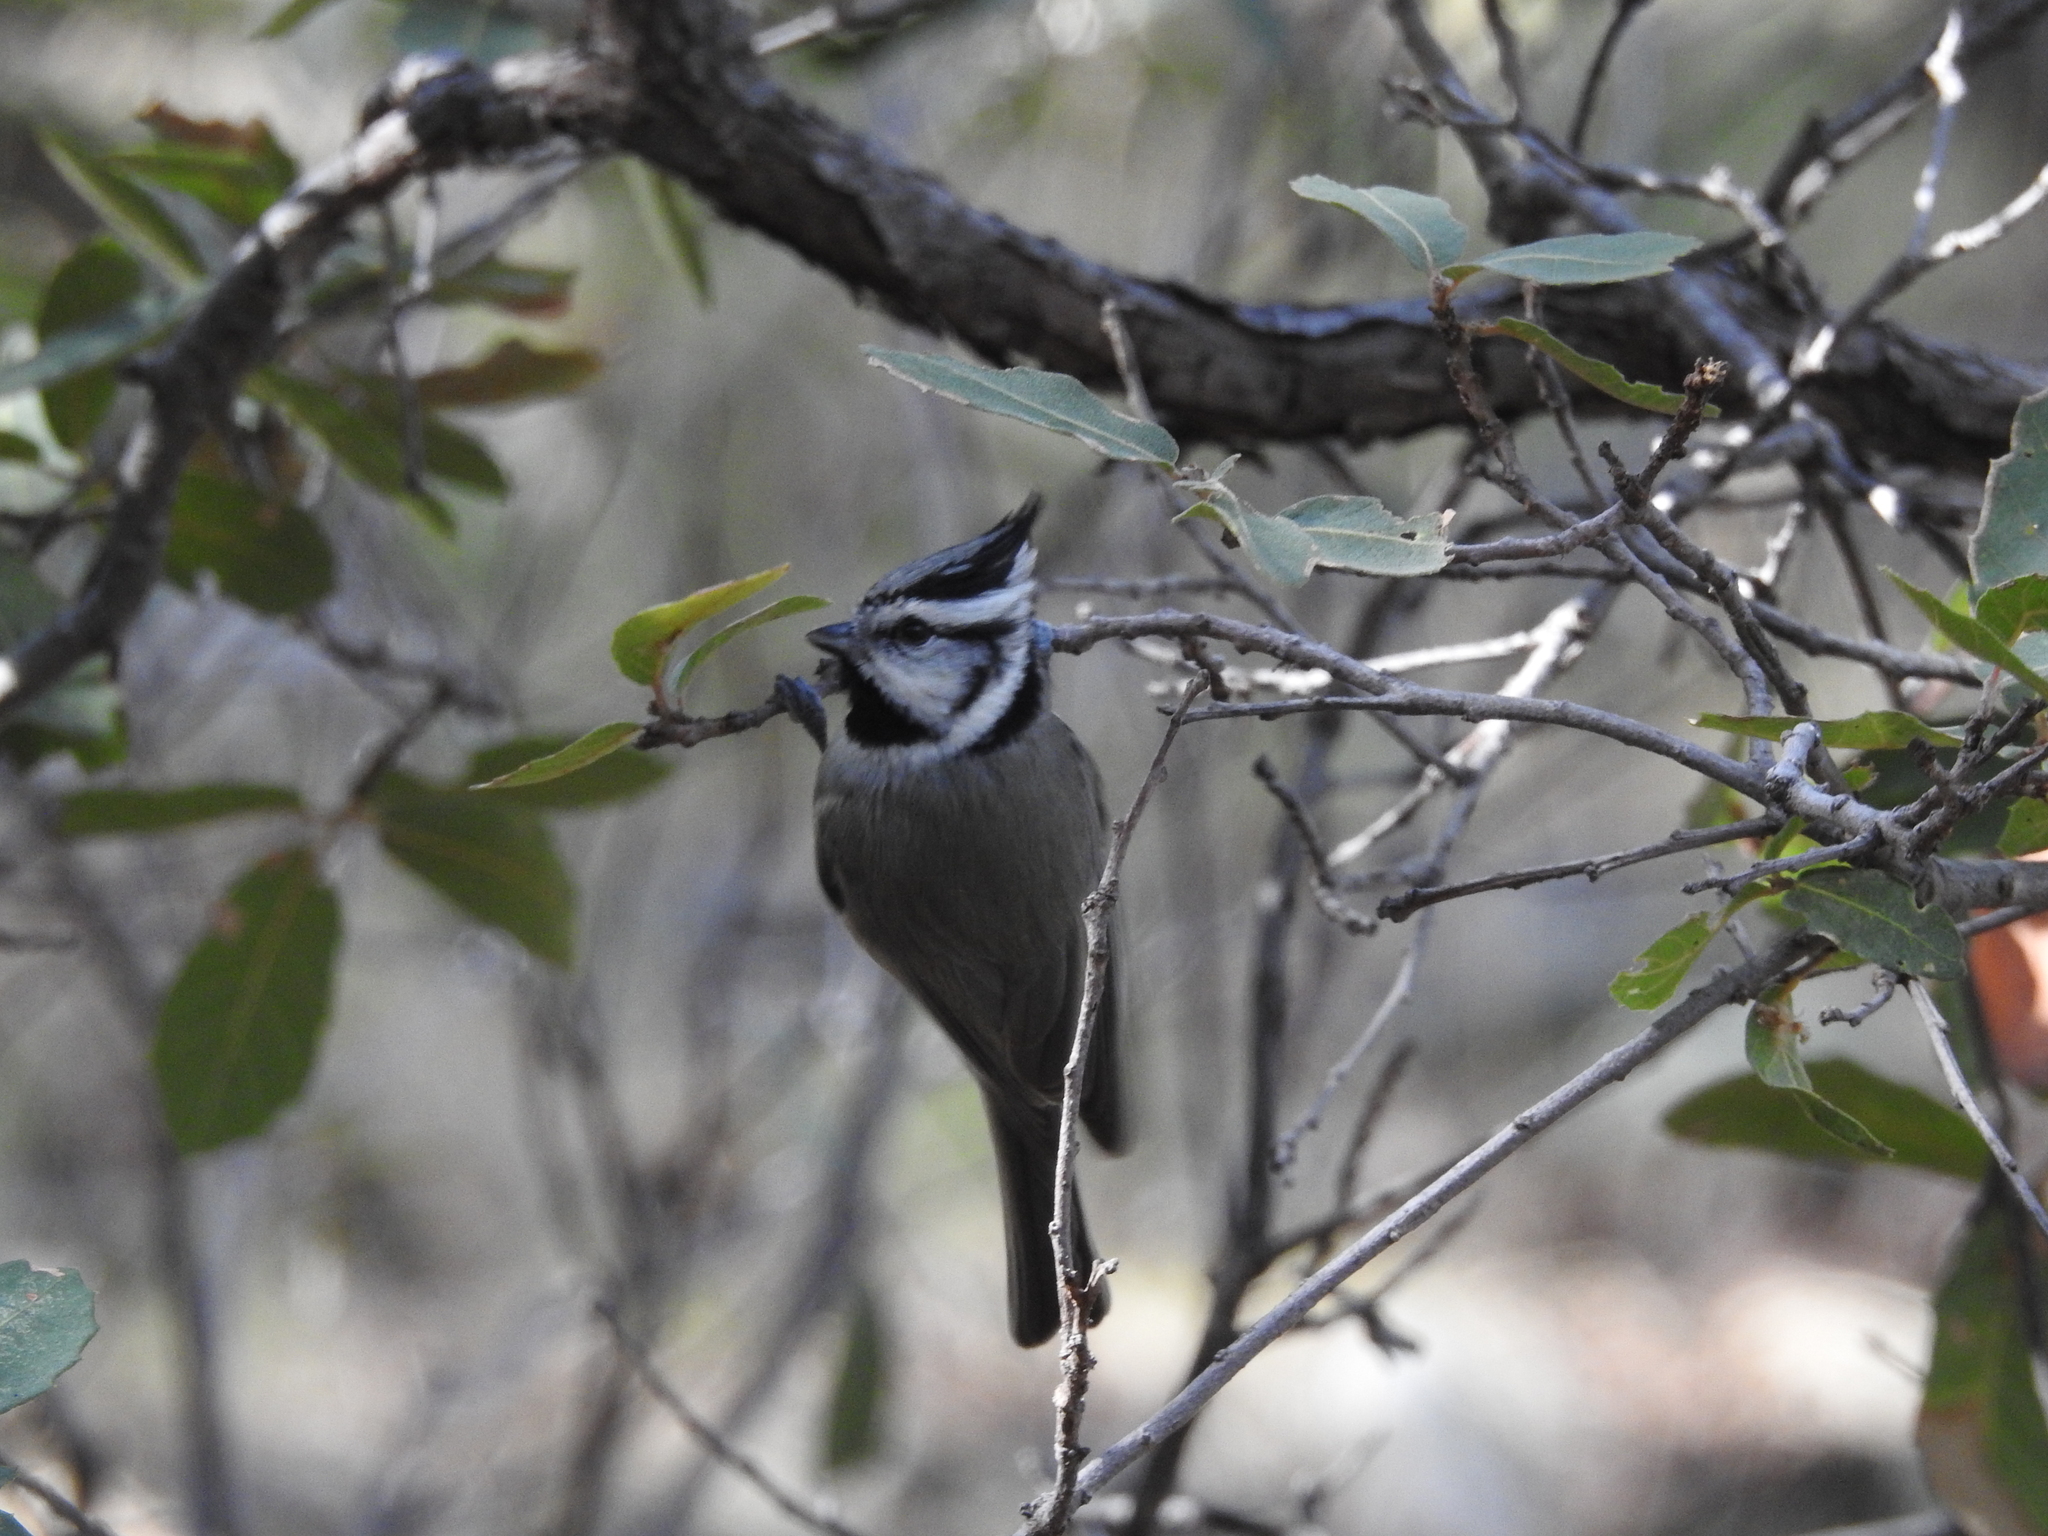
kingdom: Animalia
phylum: Chordata
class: Aves
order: Passeriformes
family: Paridae
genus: Baeolophus
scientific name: Baeolophus wollweberi
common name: Bridled titmouse
